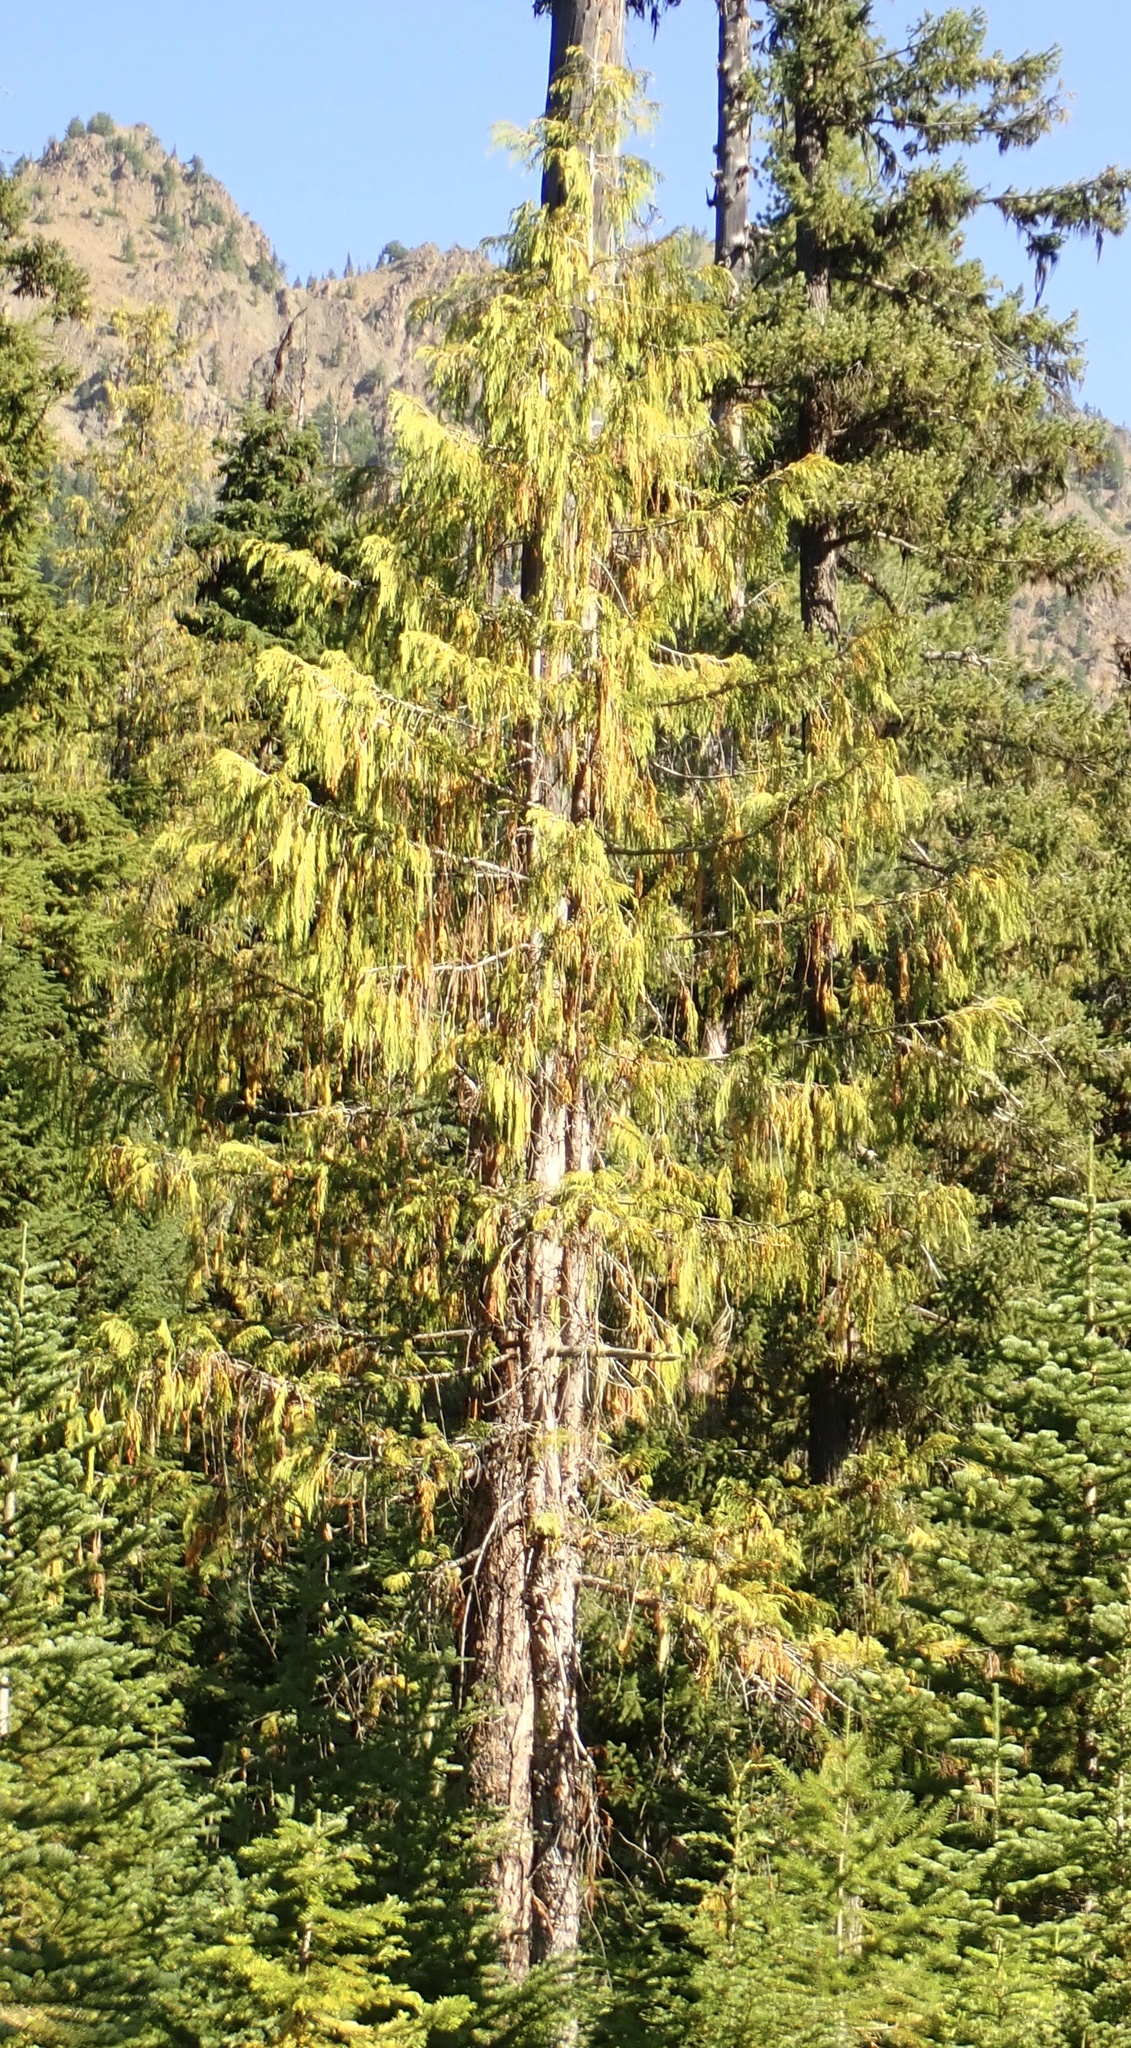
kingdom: Plantae
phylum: Tracheophyta
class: Pinopsida
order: Pinales
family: Cupressaceae
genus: Xanthocyparis
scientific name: Xanthocyparis nootkatensis
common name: Nootka cypress
